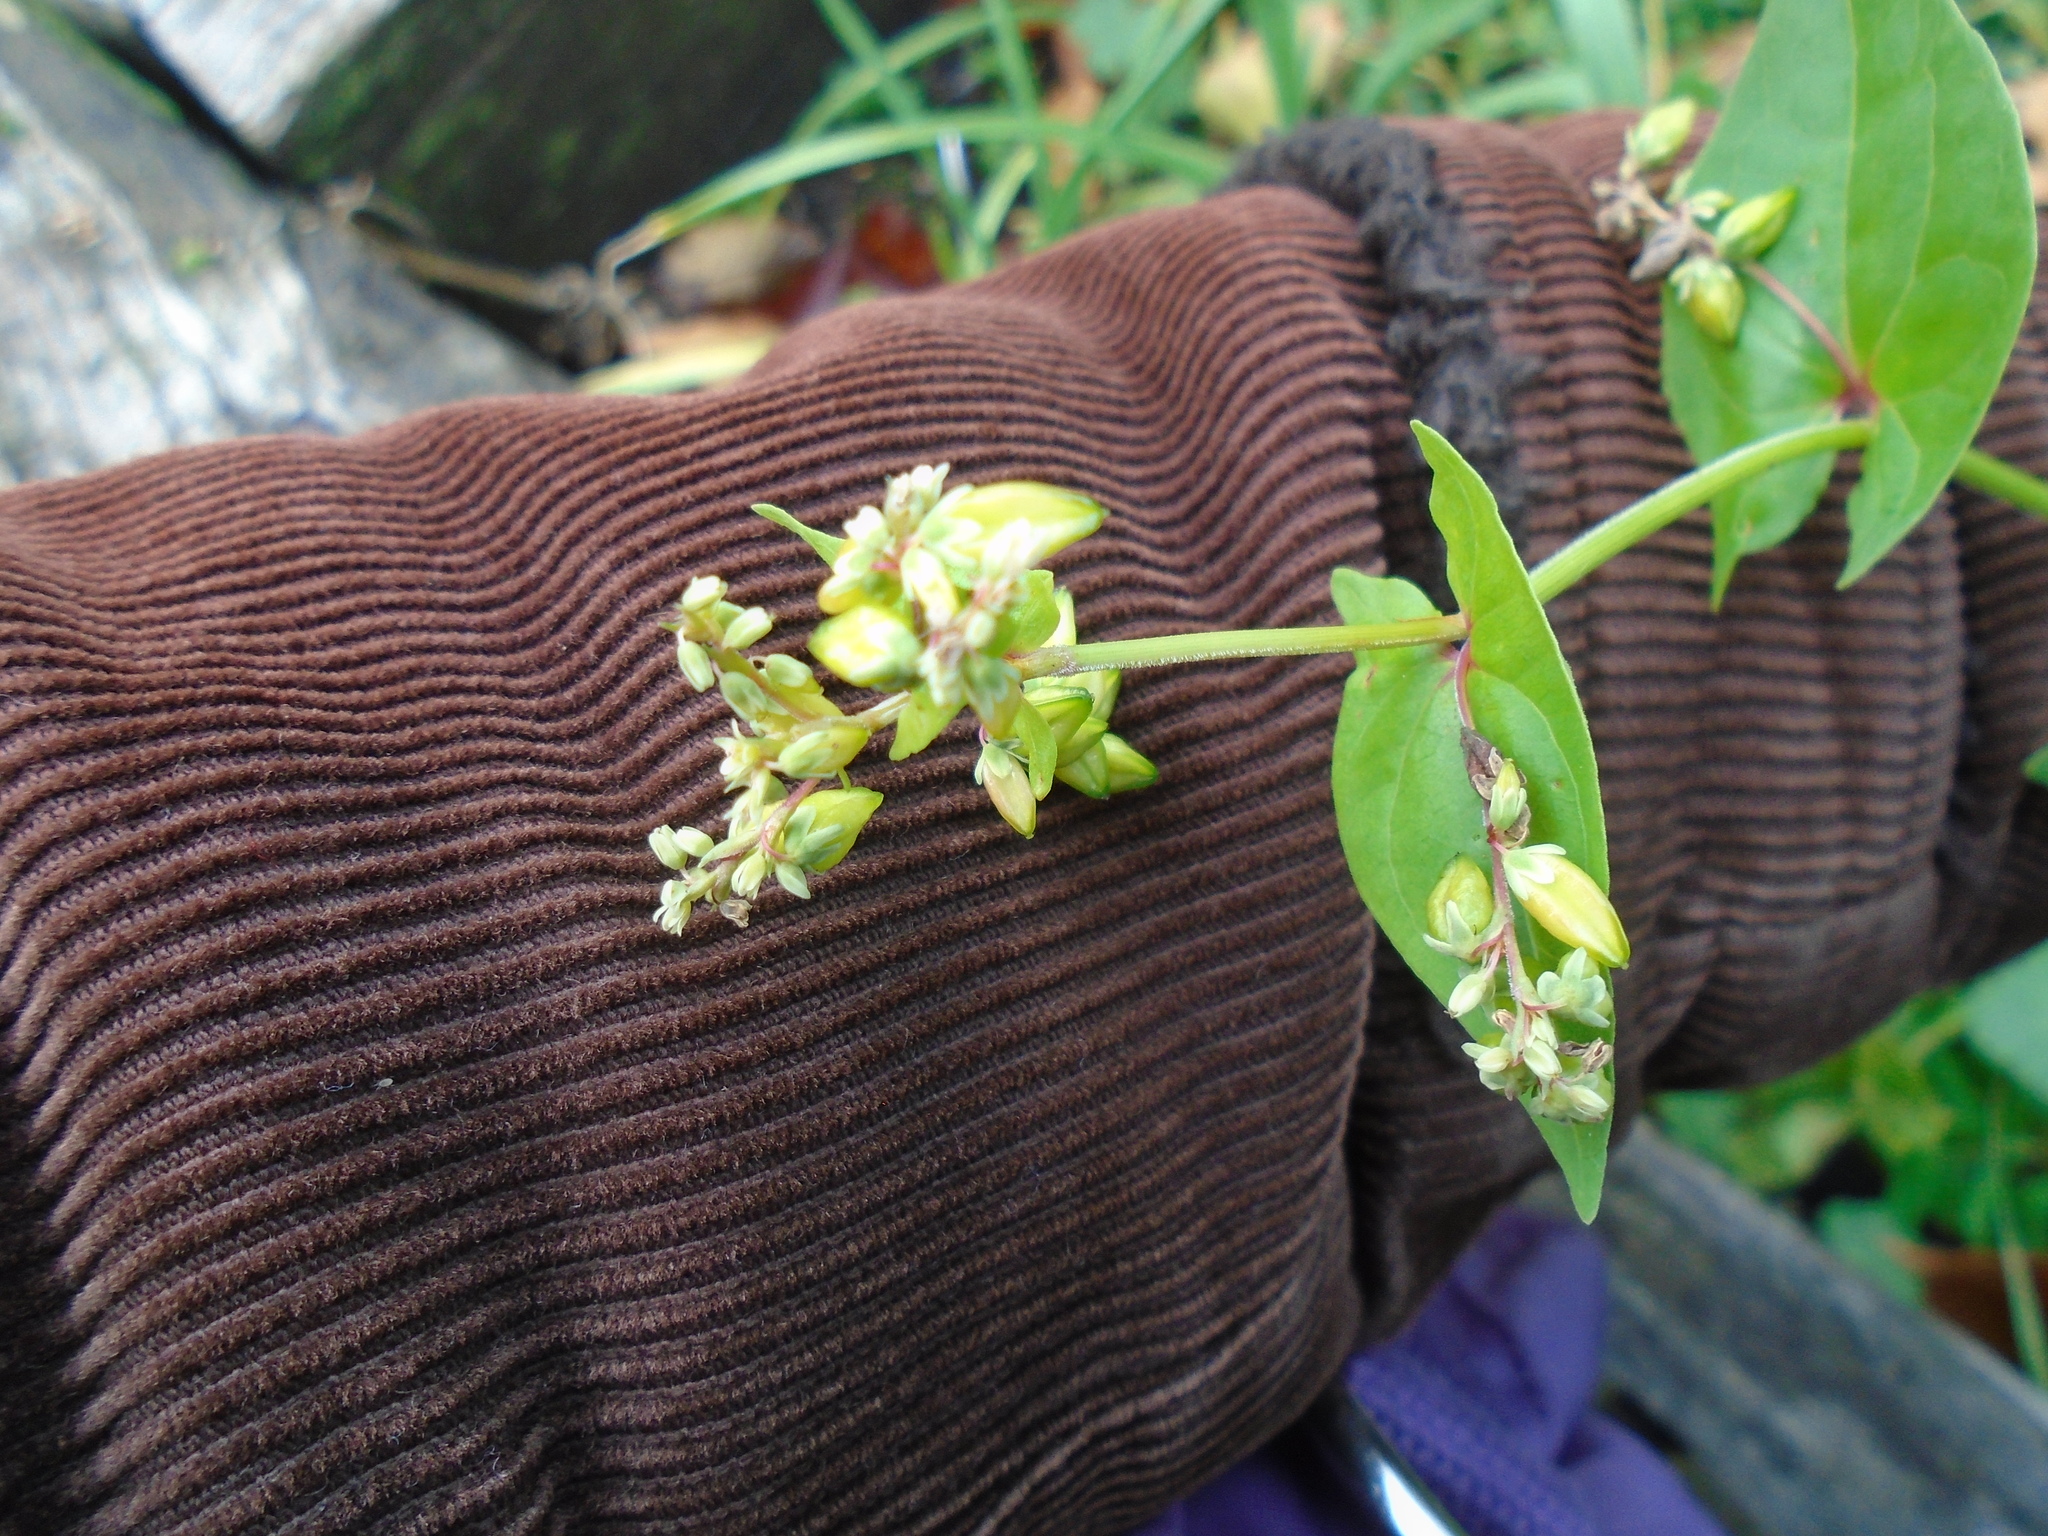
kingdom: Plantae
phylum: Tracheophyta
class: Magnoliopsida
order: Caryophyllales
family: Polygonaceae
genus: Fagopyrum
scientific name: Fagopyrum esculentum
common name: Buckwheat
